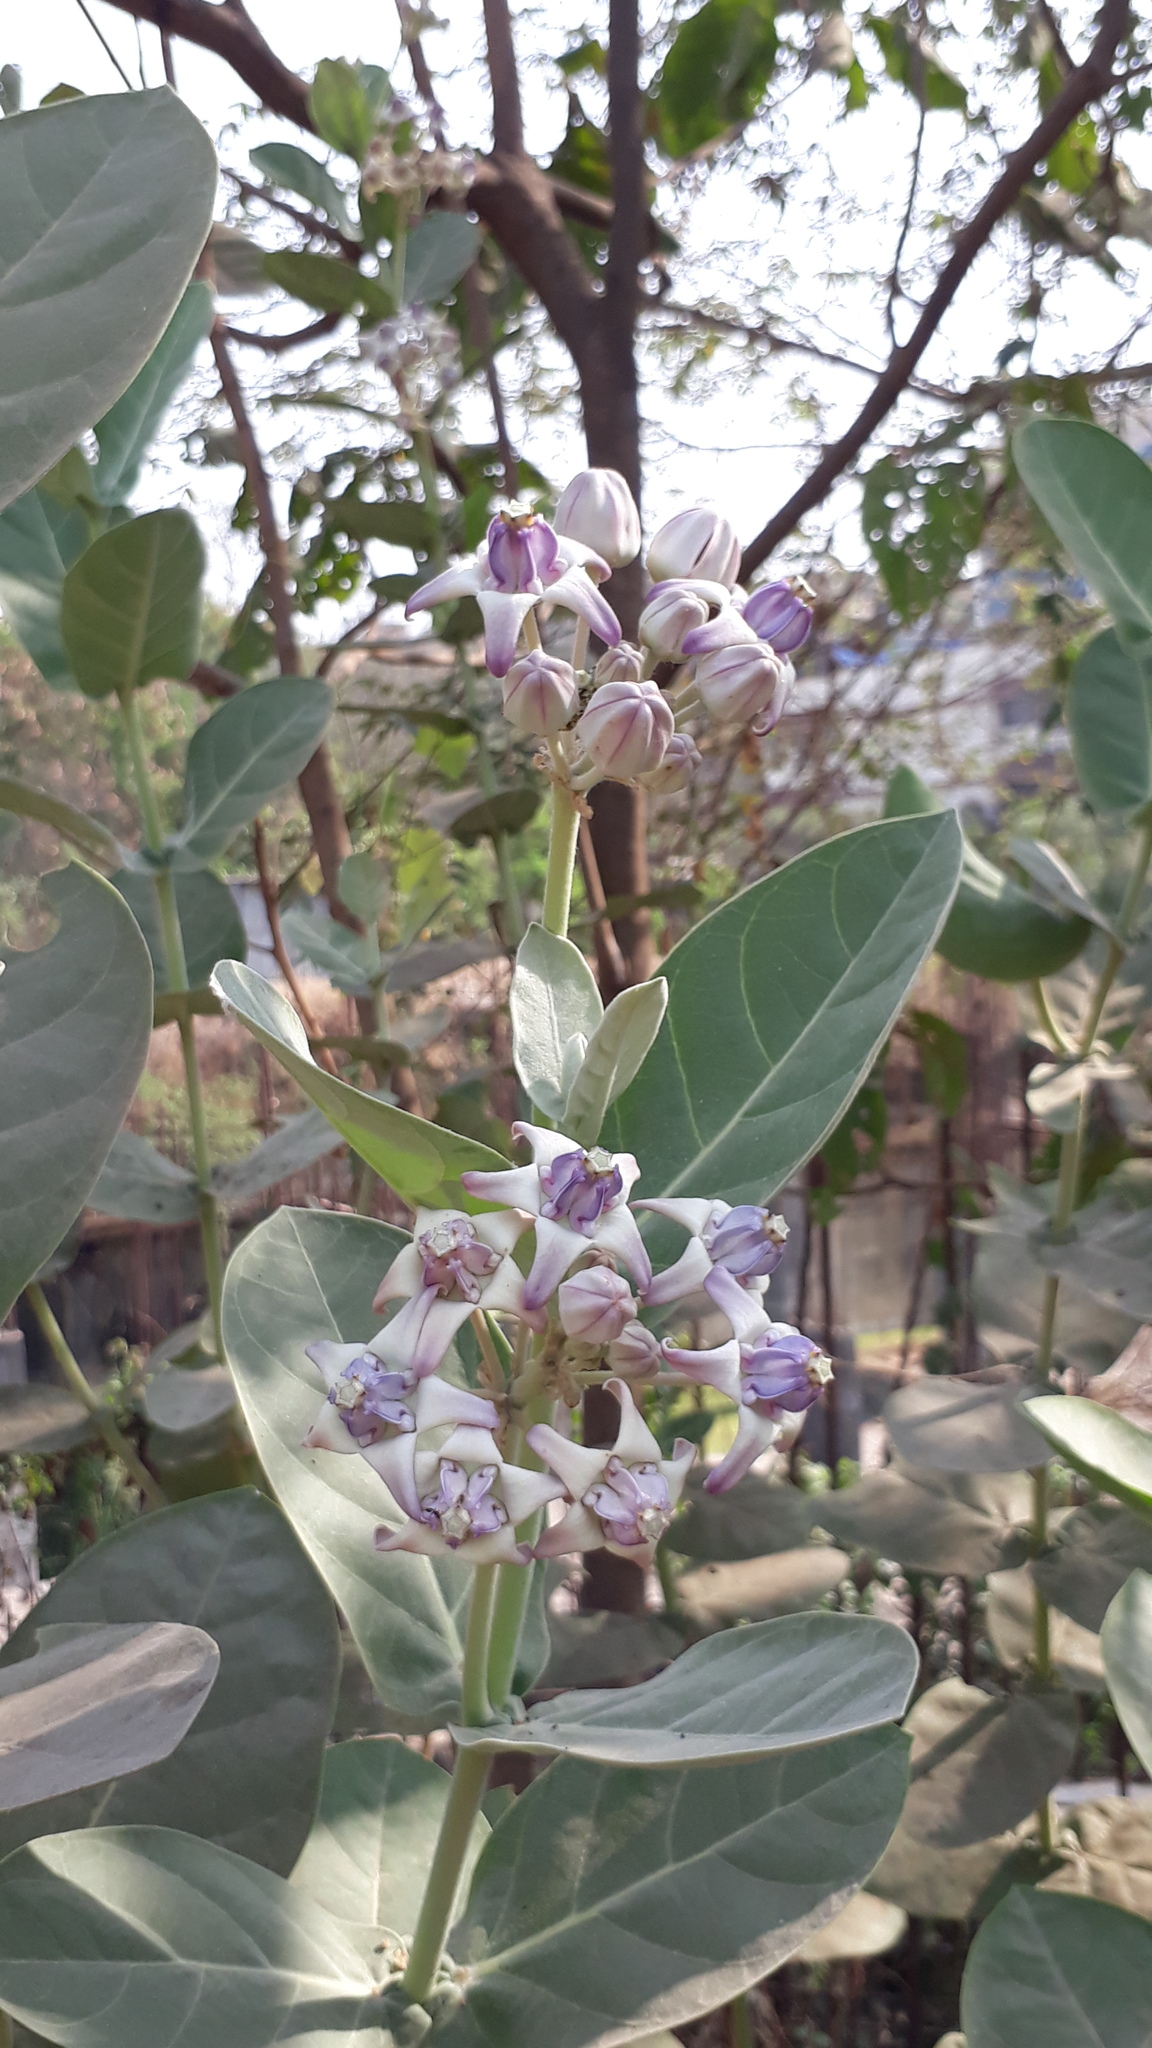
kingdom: Plantae
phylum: Tracheophyta
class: Magnoliopsida
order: Gentianales
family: Apocynaceae
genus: Calotropis
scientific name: Calotropis gigantea
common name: Crown flower
